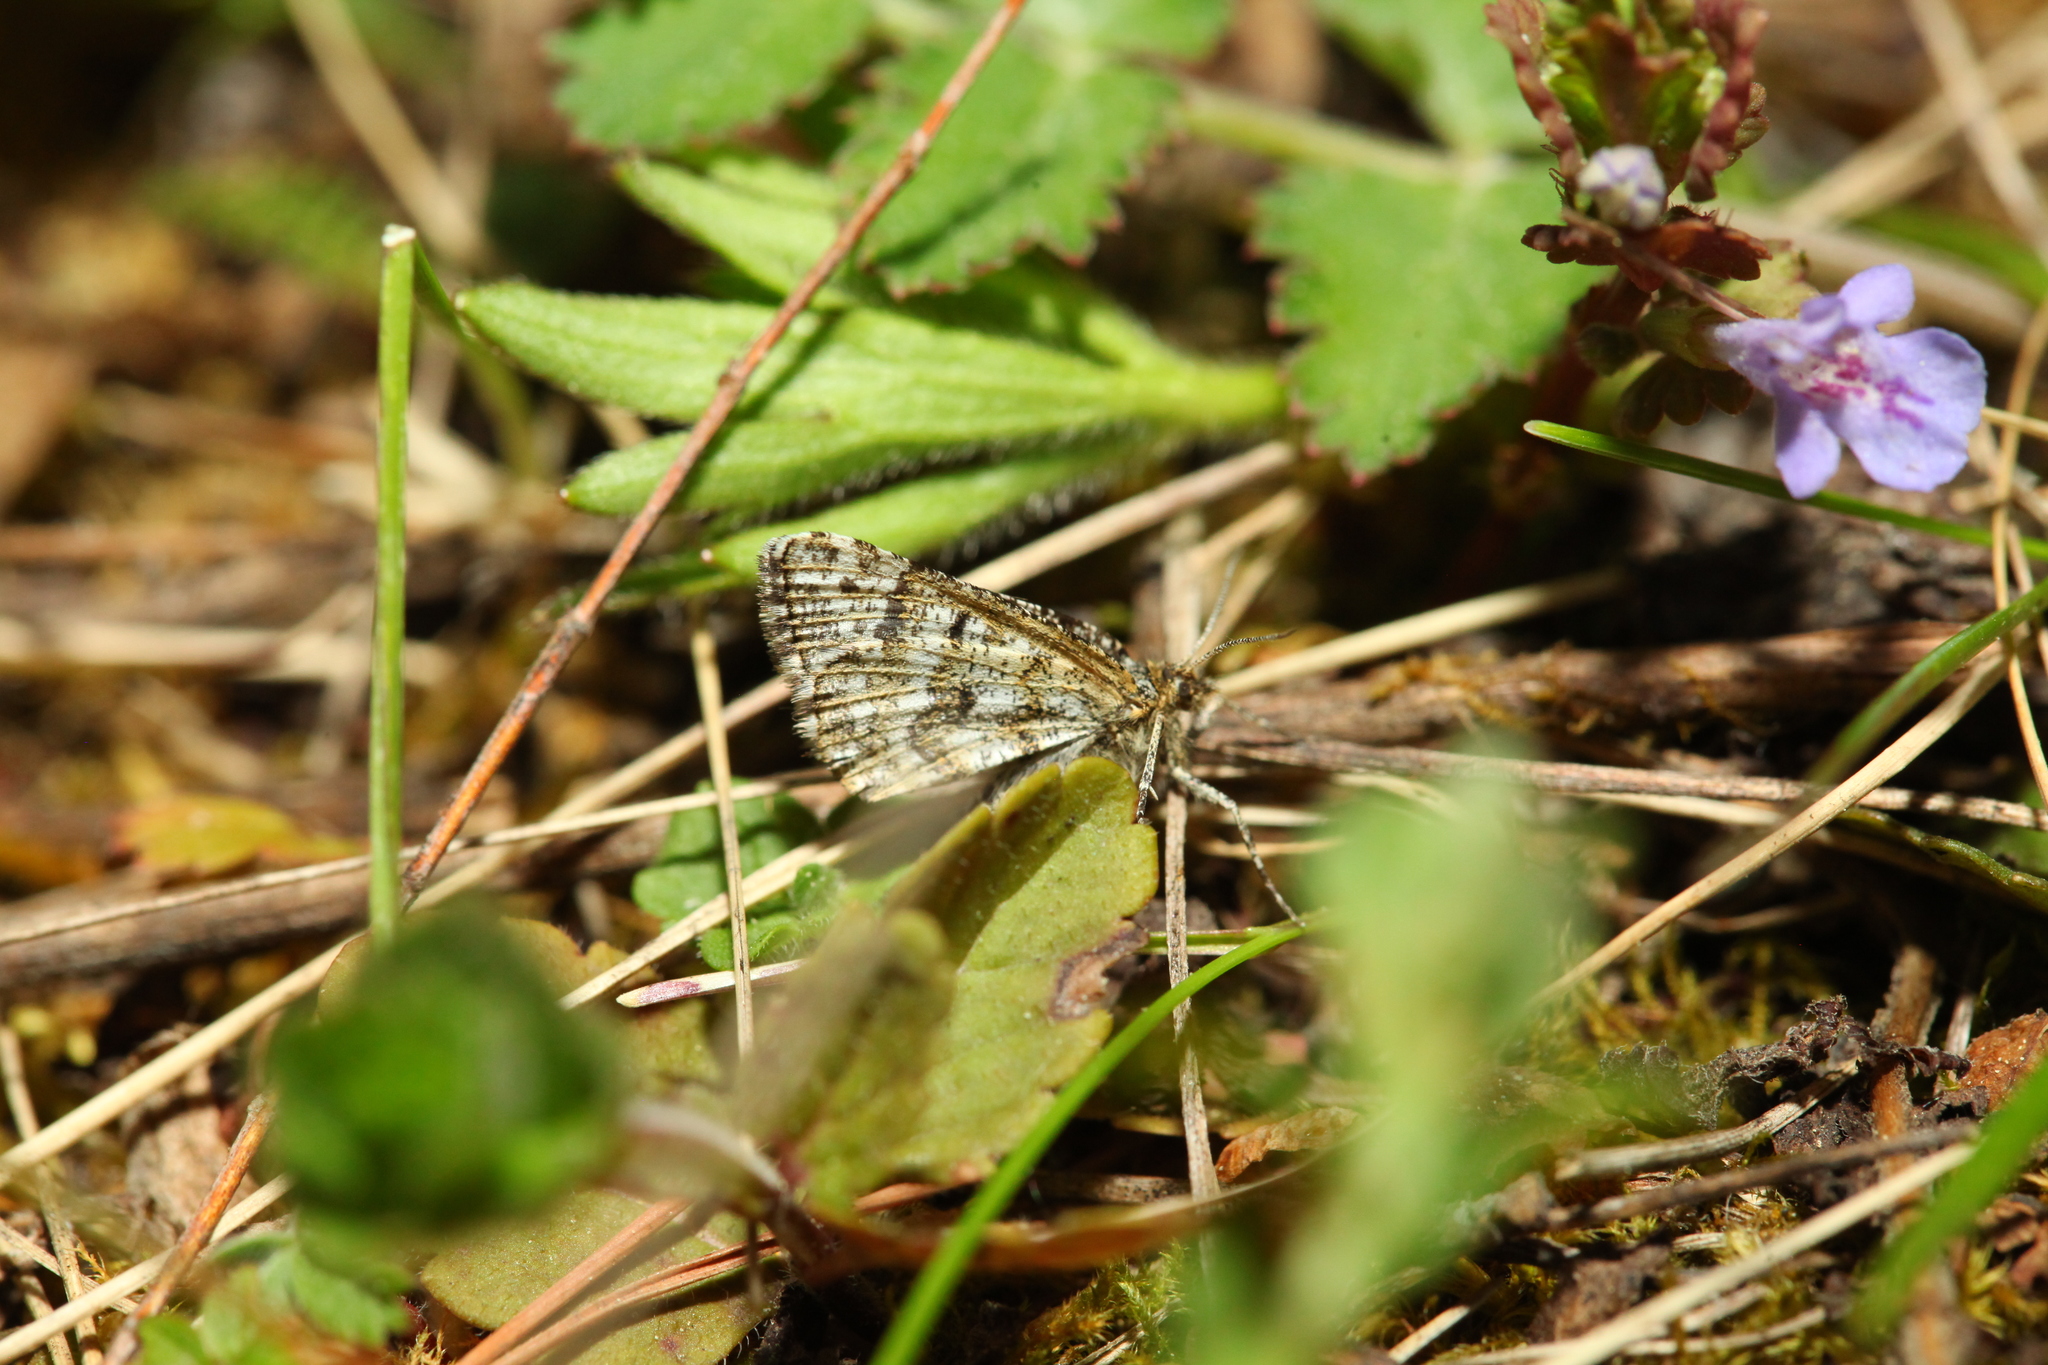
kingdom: Animalia
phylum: Arthropoda
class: Insecta
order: Lepidoptera
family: Geometridae
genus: Macaria
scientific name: Macaria carbonaria
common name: Netted mountain moth
